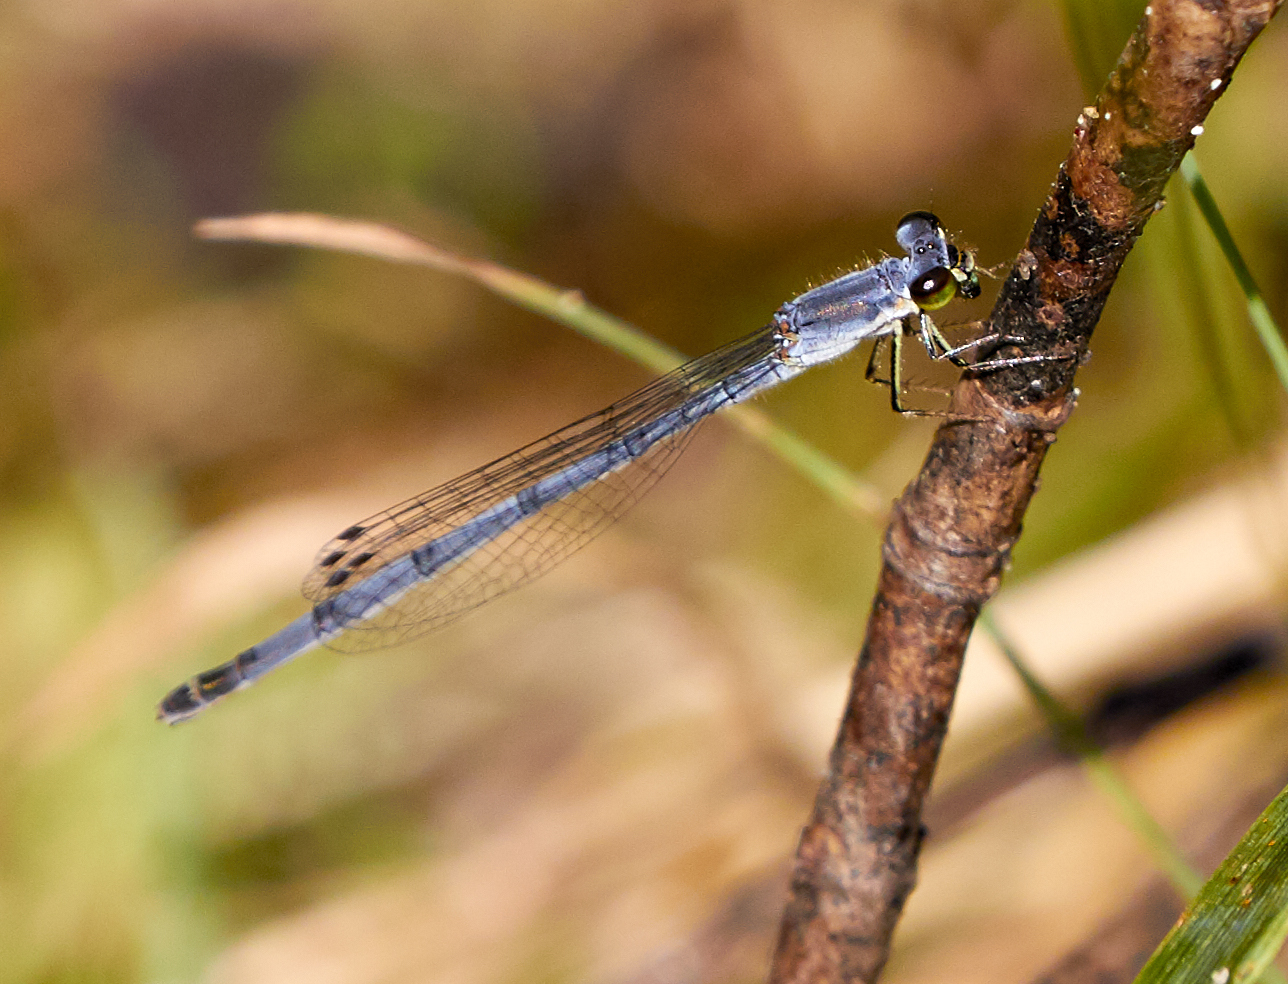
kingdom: Animalia
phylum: Arthropoda
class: Insecta
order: Odonata
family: Coenagrionidae
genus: Ischnura
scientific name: Ischnura posita
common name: Fragile forktail
